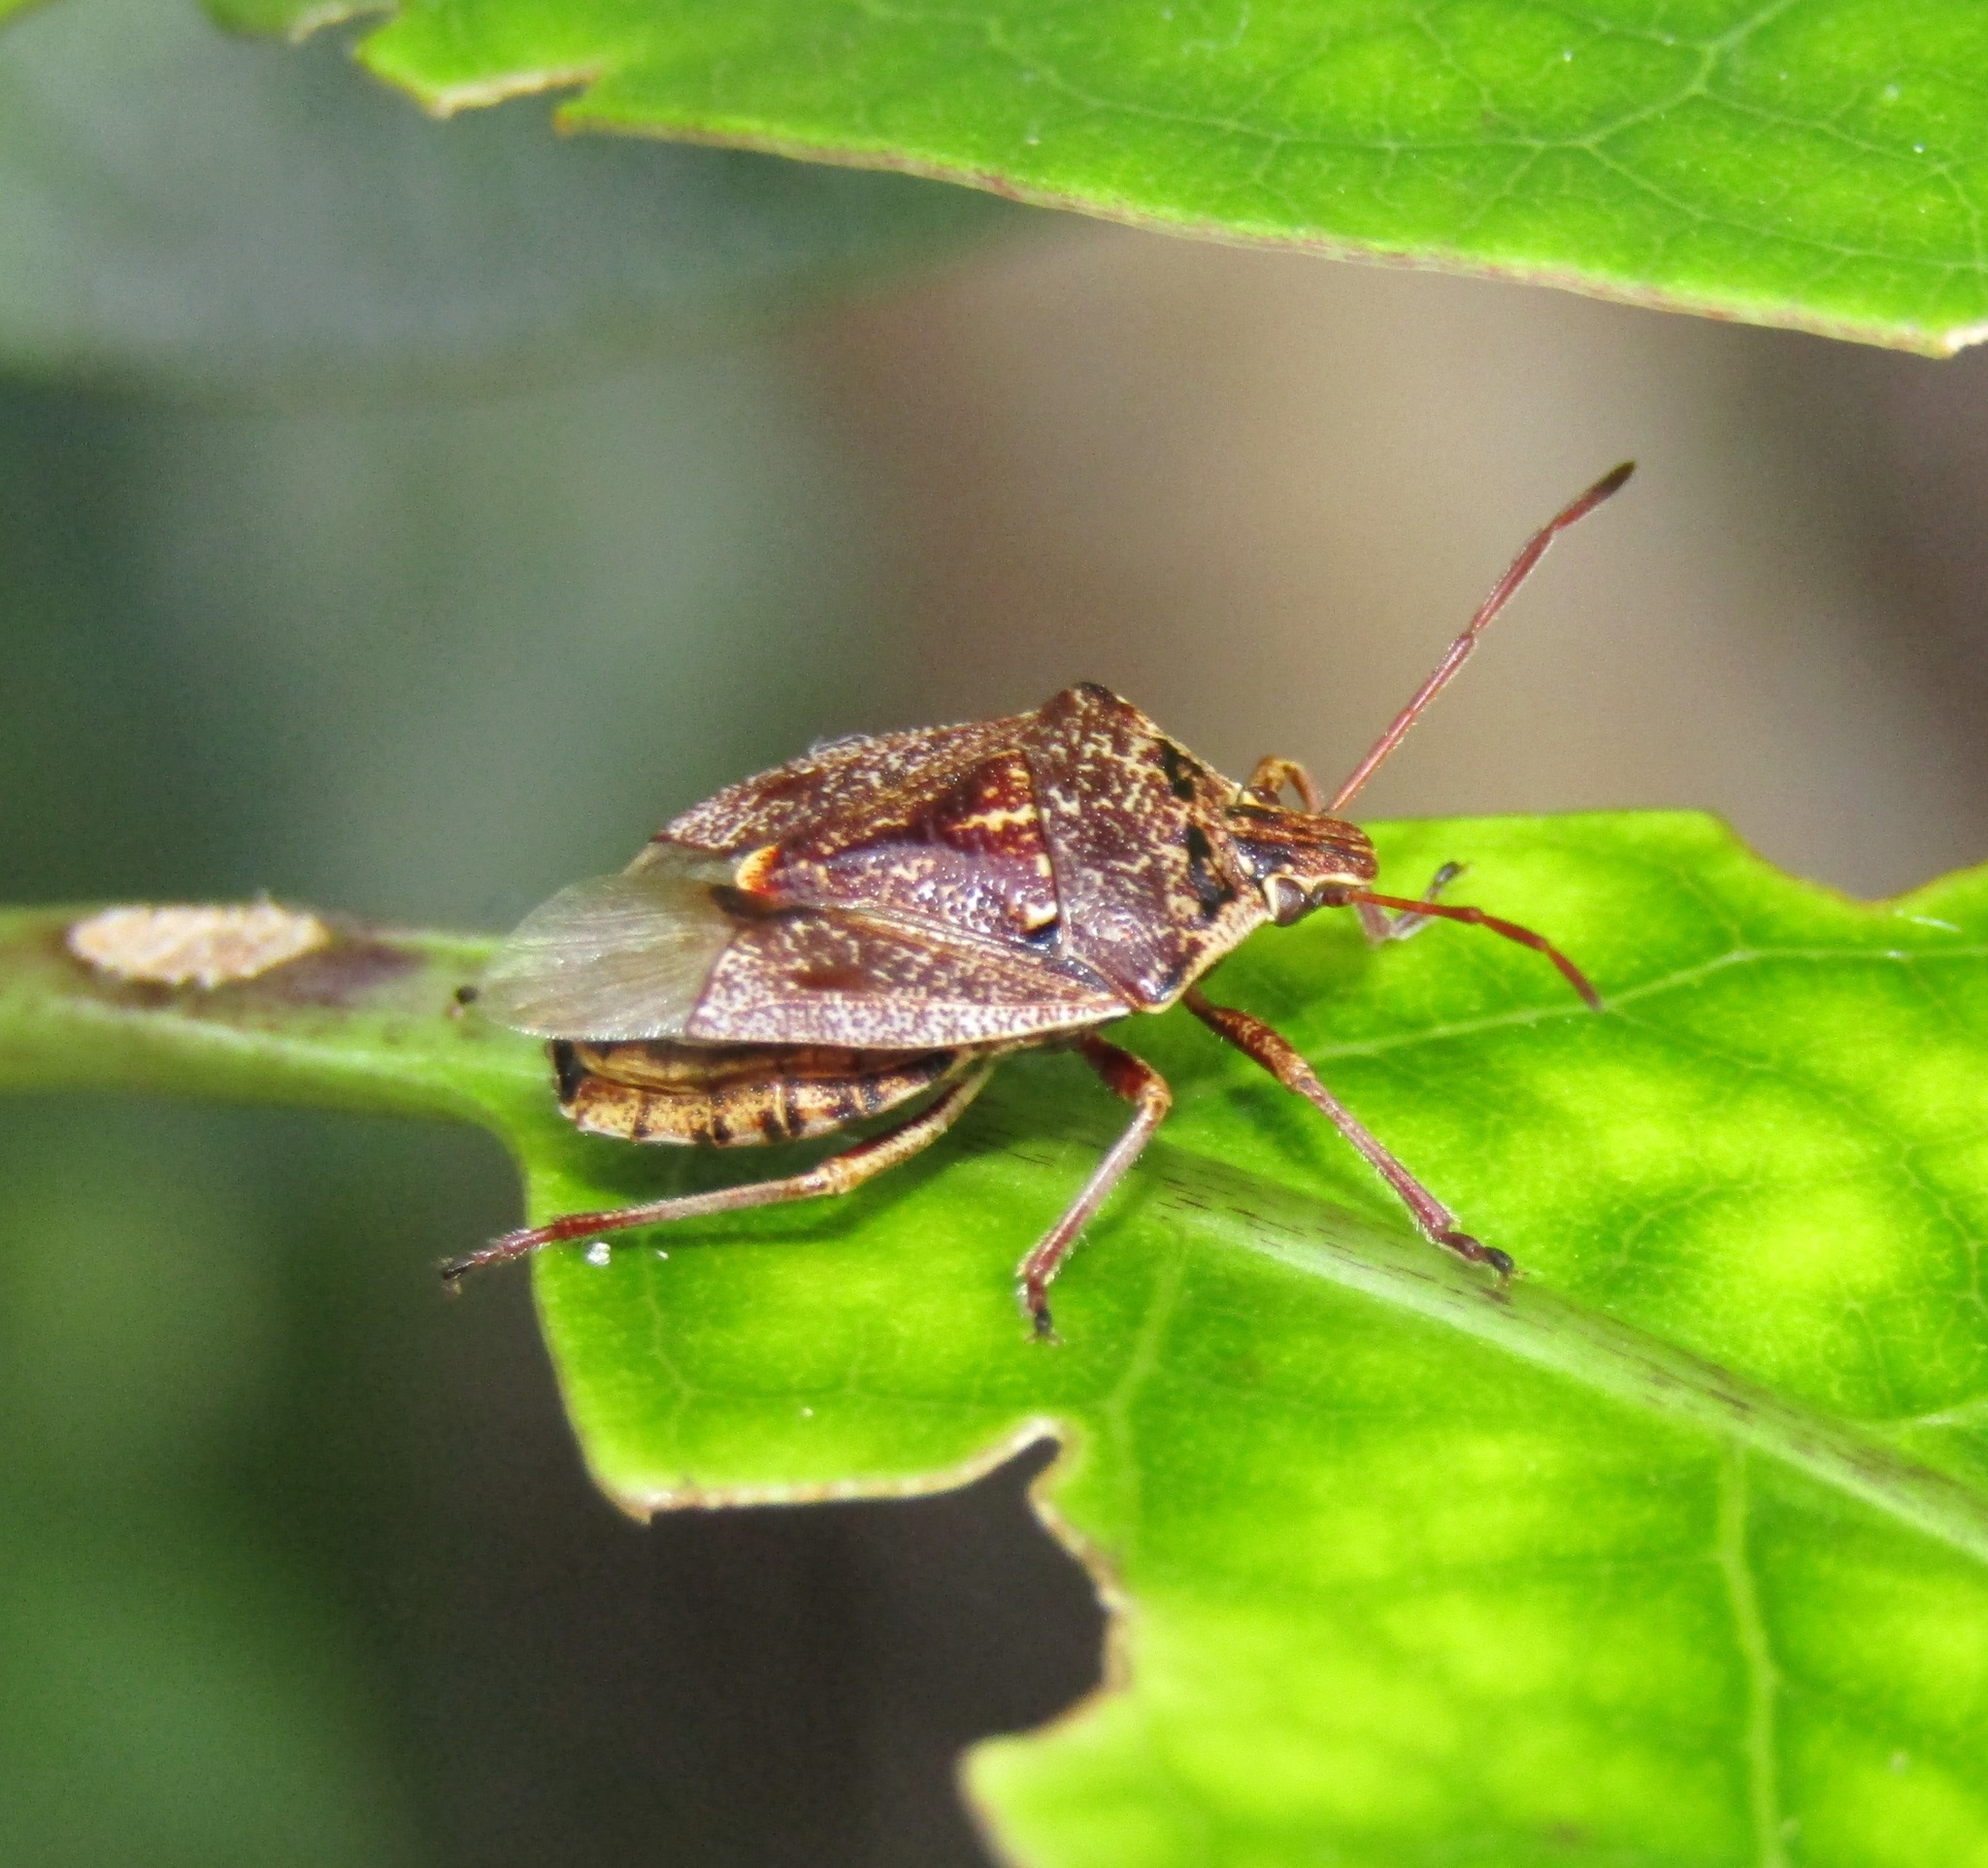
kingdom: Animalia
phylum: Arthropoda
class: Insecta
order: Hemiptera
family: Pentatomidae
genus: Cermatulus
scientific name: Cermatulus nasalis
